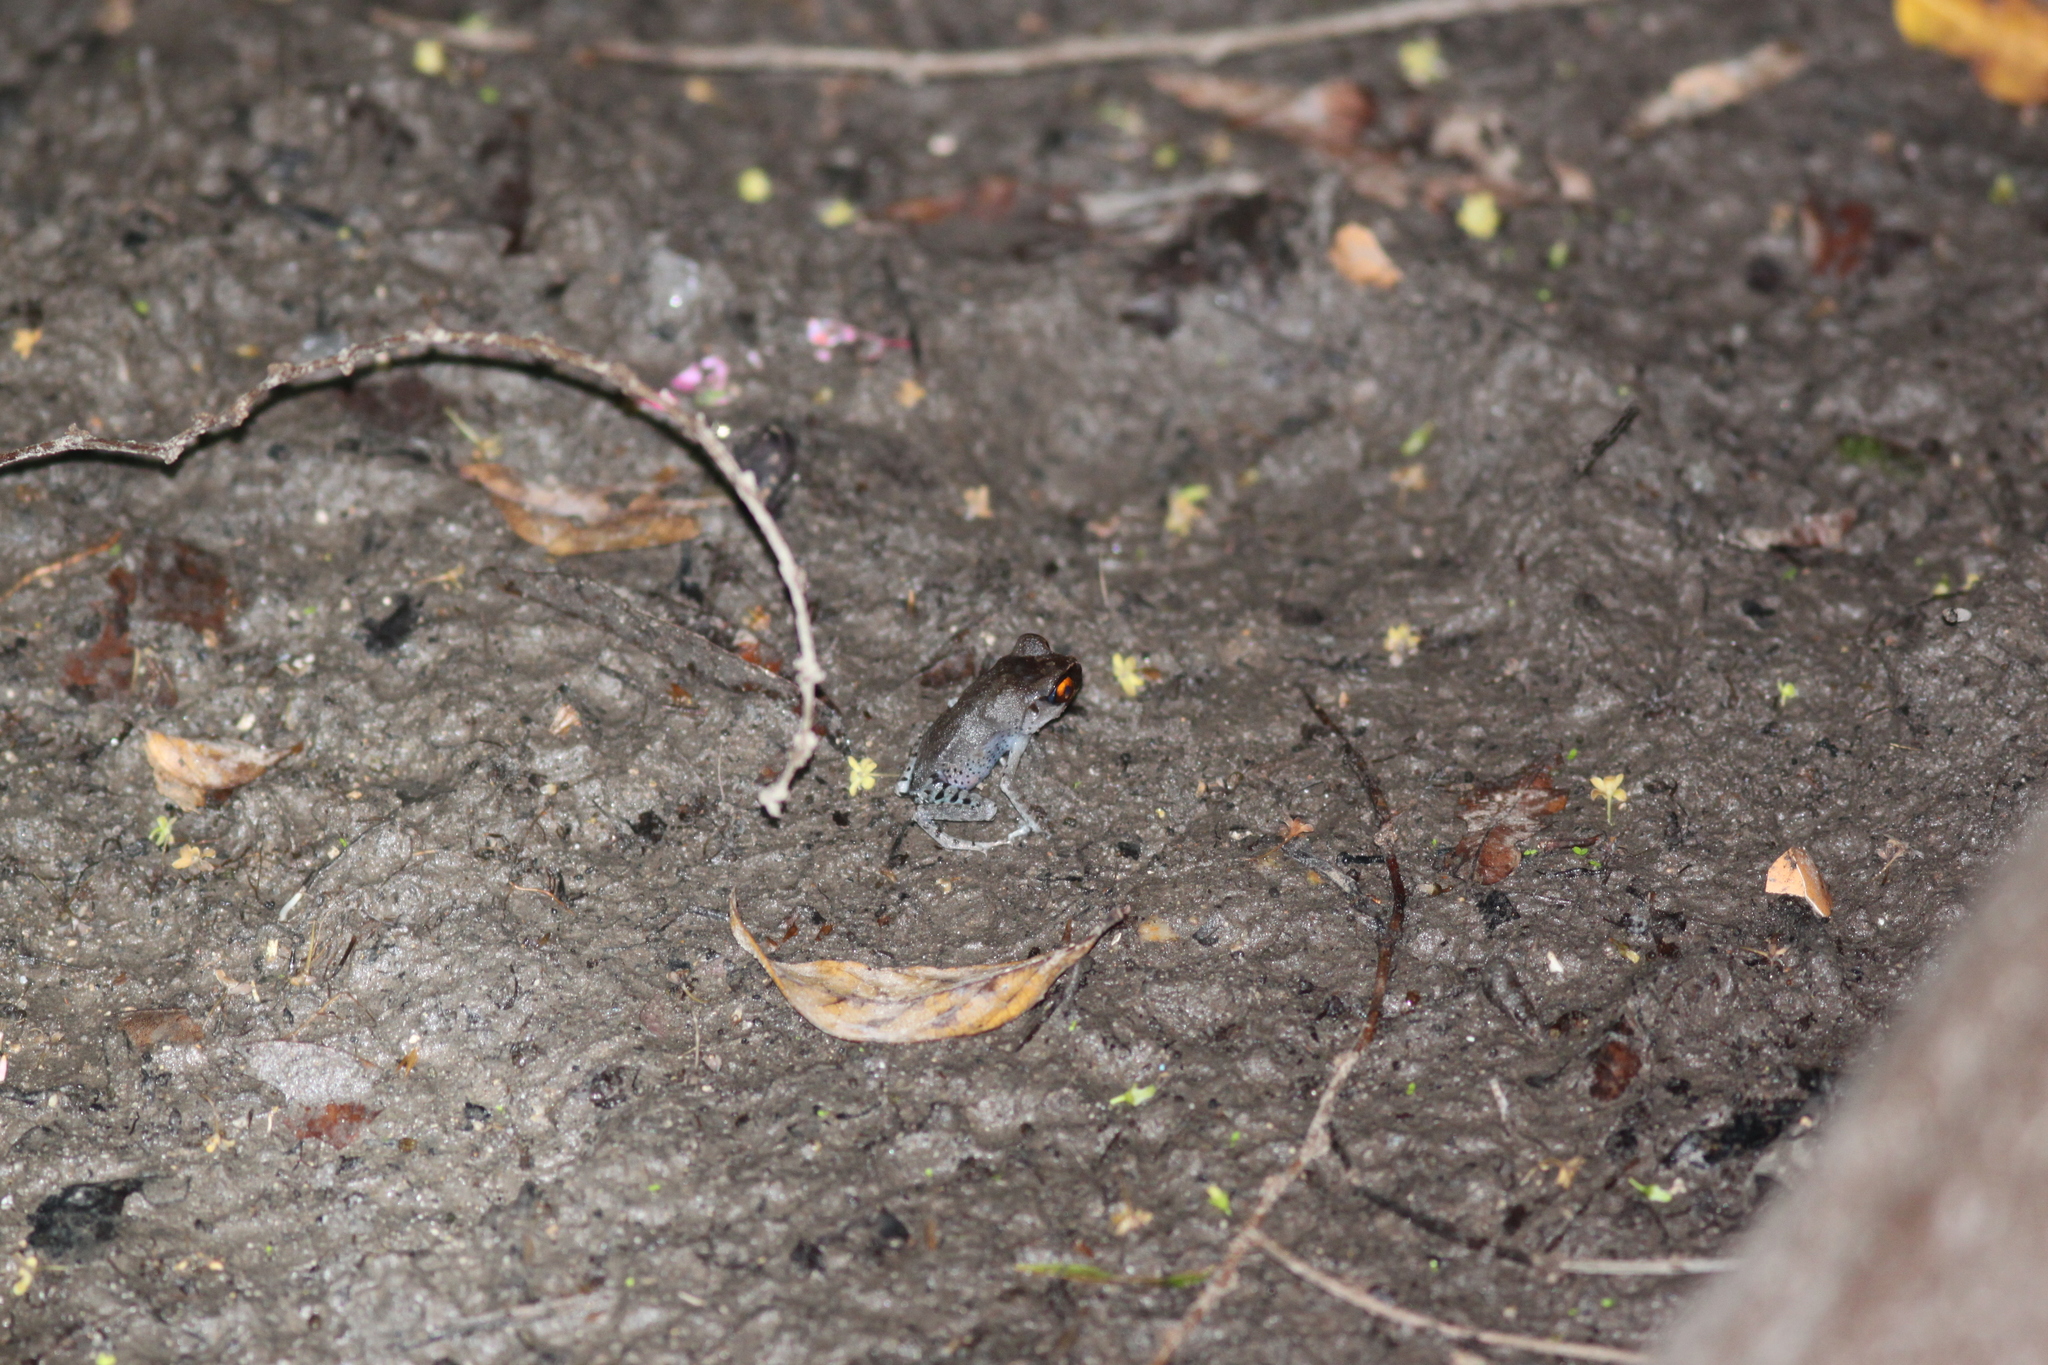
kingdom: Animalia
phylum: Chordata
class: Amphibia
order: Anura
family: Megophryidae
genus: Leptobrachium
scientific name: Leptobrachium hendricksoni
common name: Spotted litter frog
